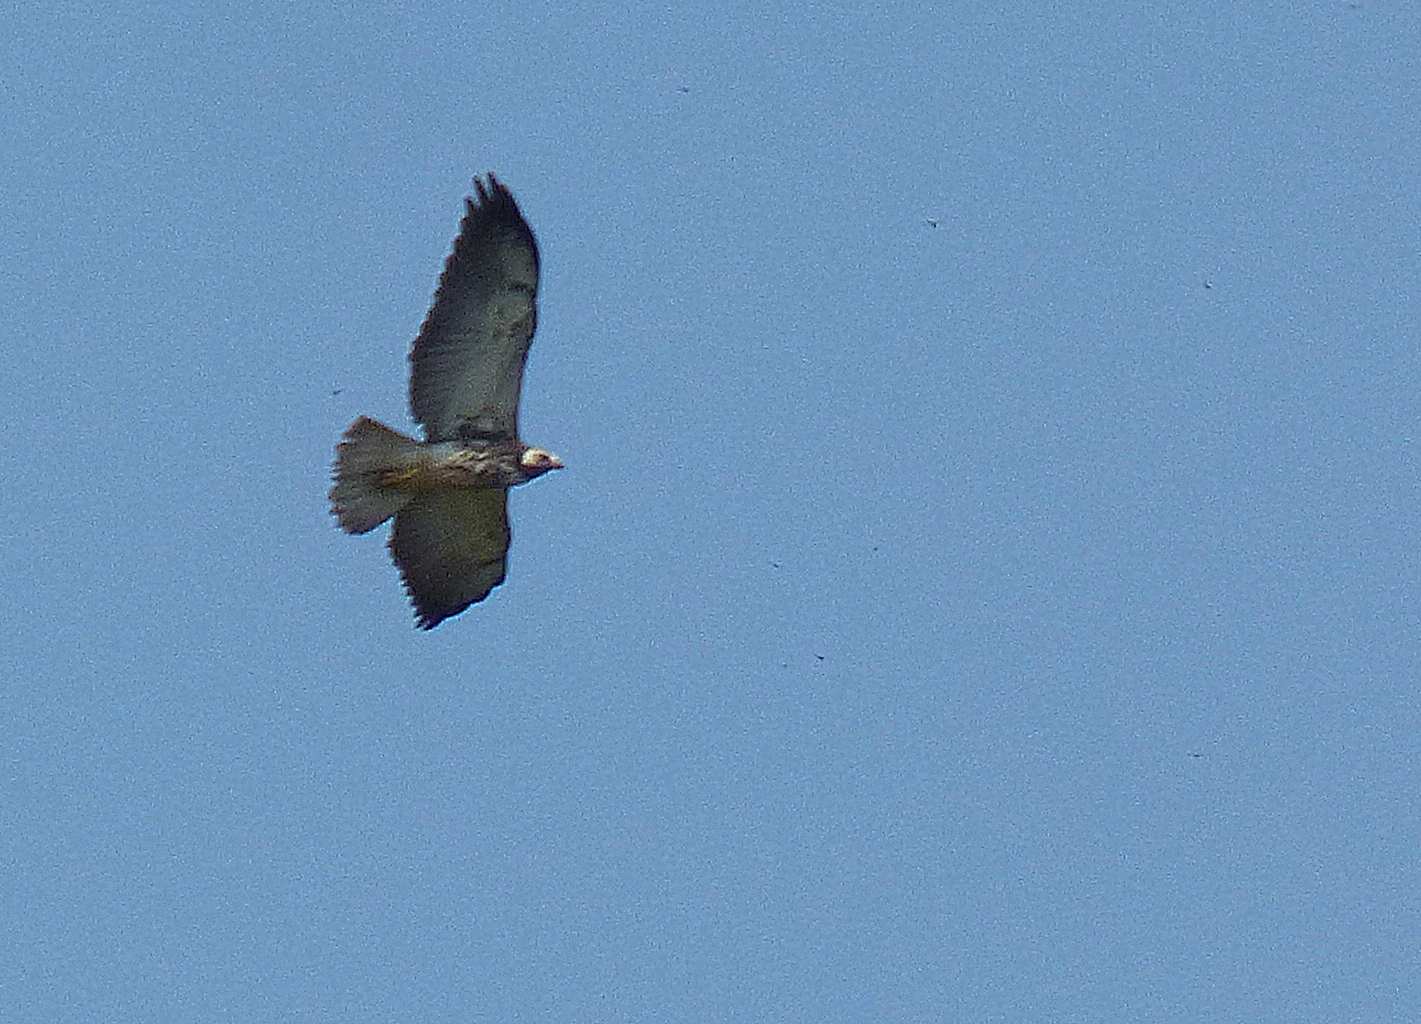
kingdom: Animalia
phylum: Chordata
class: Aves
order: Accipitriformes
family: Accipitridae
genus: Buteo
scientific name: Buteo albicaudatus
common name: White-tailed hawk
